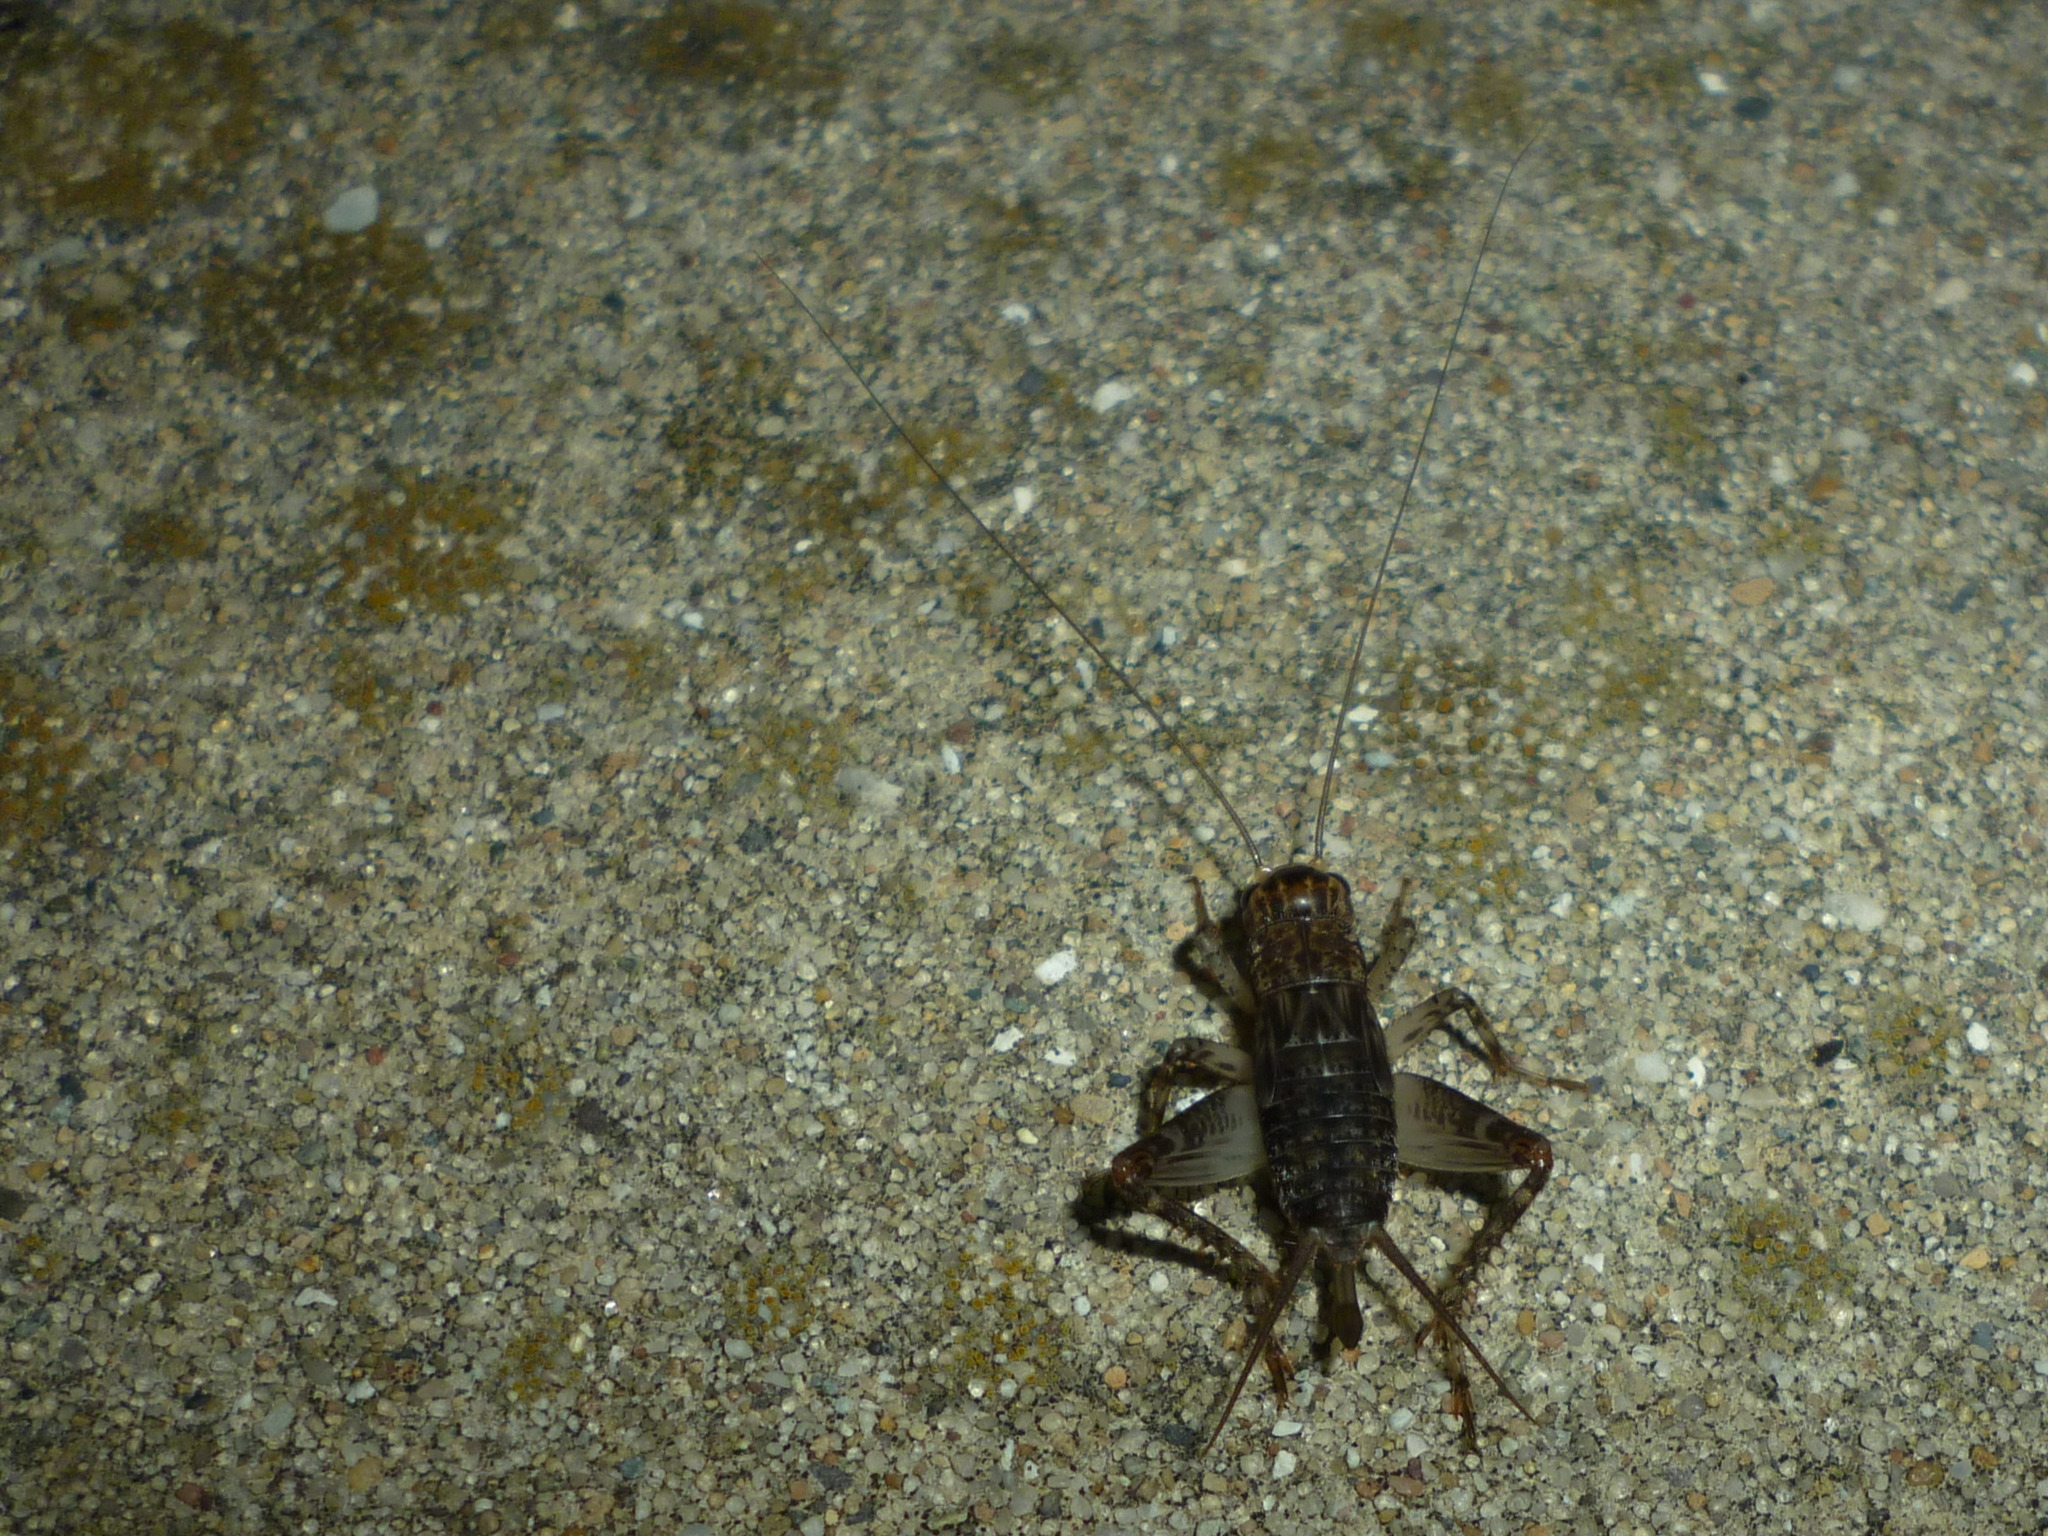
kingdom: Animalia
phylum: Arthropoda
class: Insecta
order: Orthoptera
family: Gryllidae
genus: Velarifictorus
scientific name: Velarifictorus micado
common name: Japanese burrowing cricket
